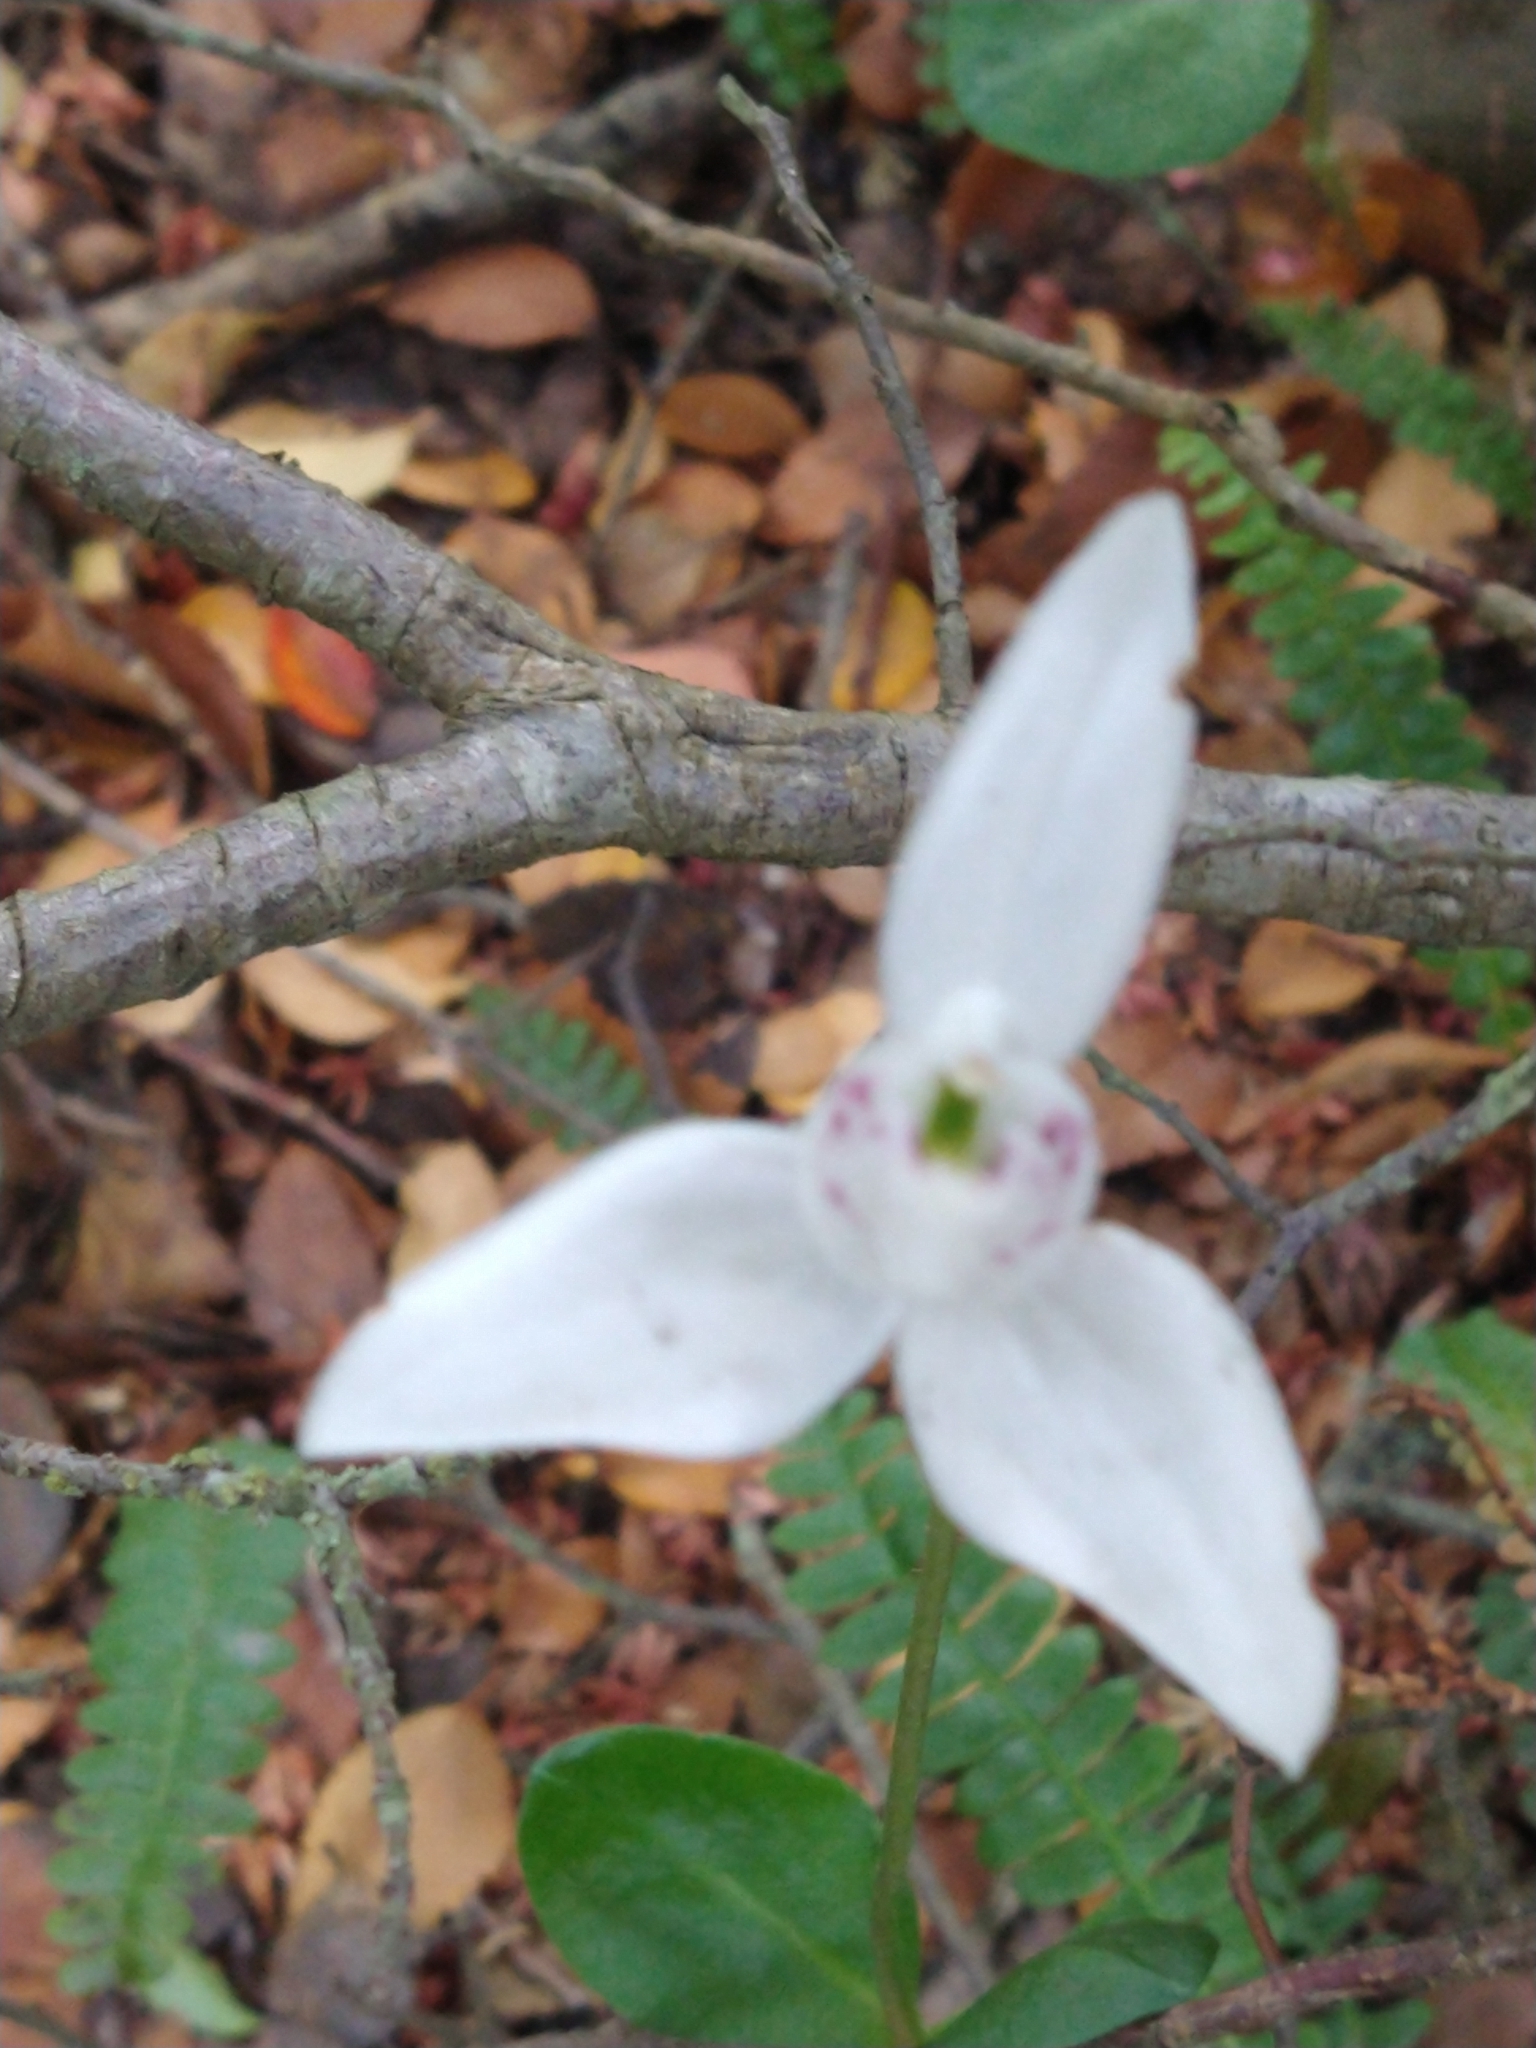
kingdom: Plantae
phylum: Tracheophyta
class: Liliopsida
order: Asparagales
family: Orchidaceae
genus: Codonorchis
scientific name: Codonorchis lessonii
